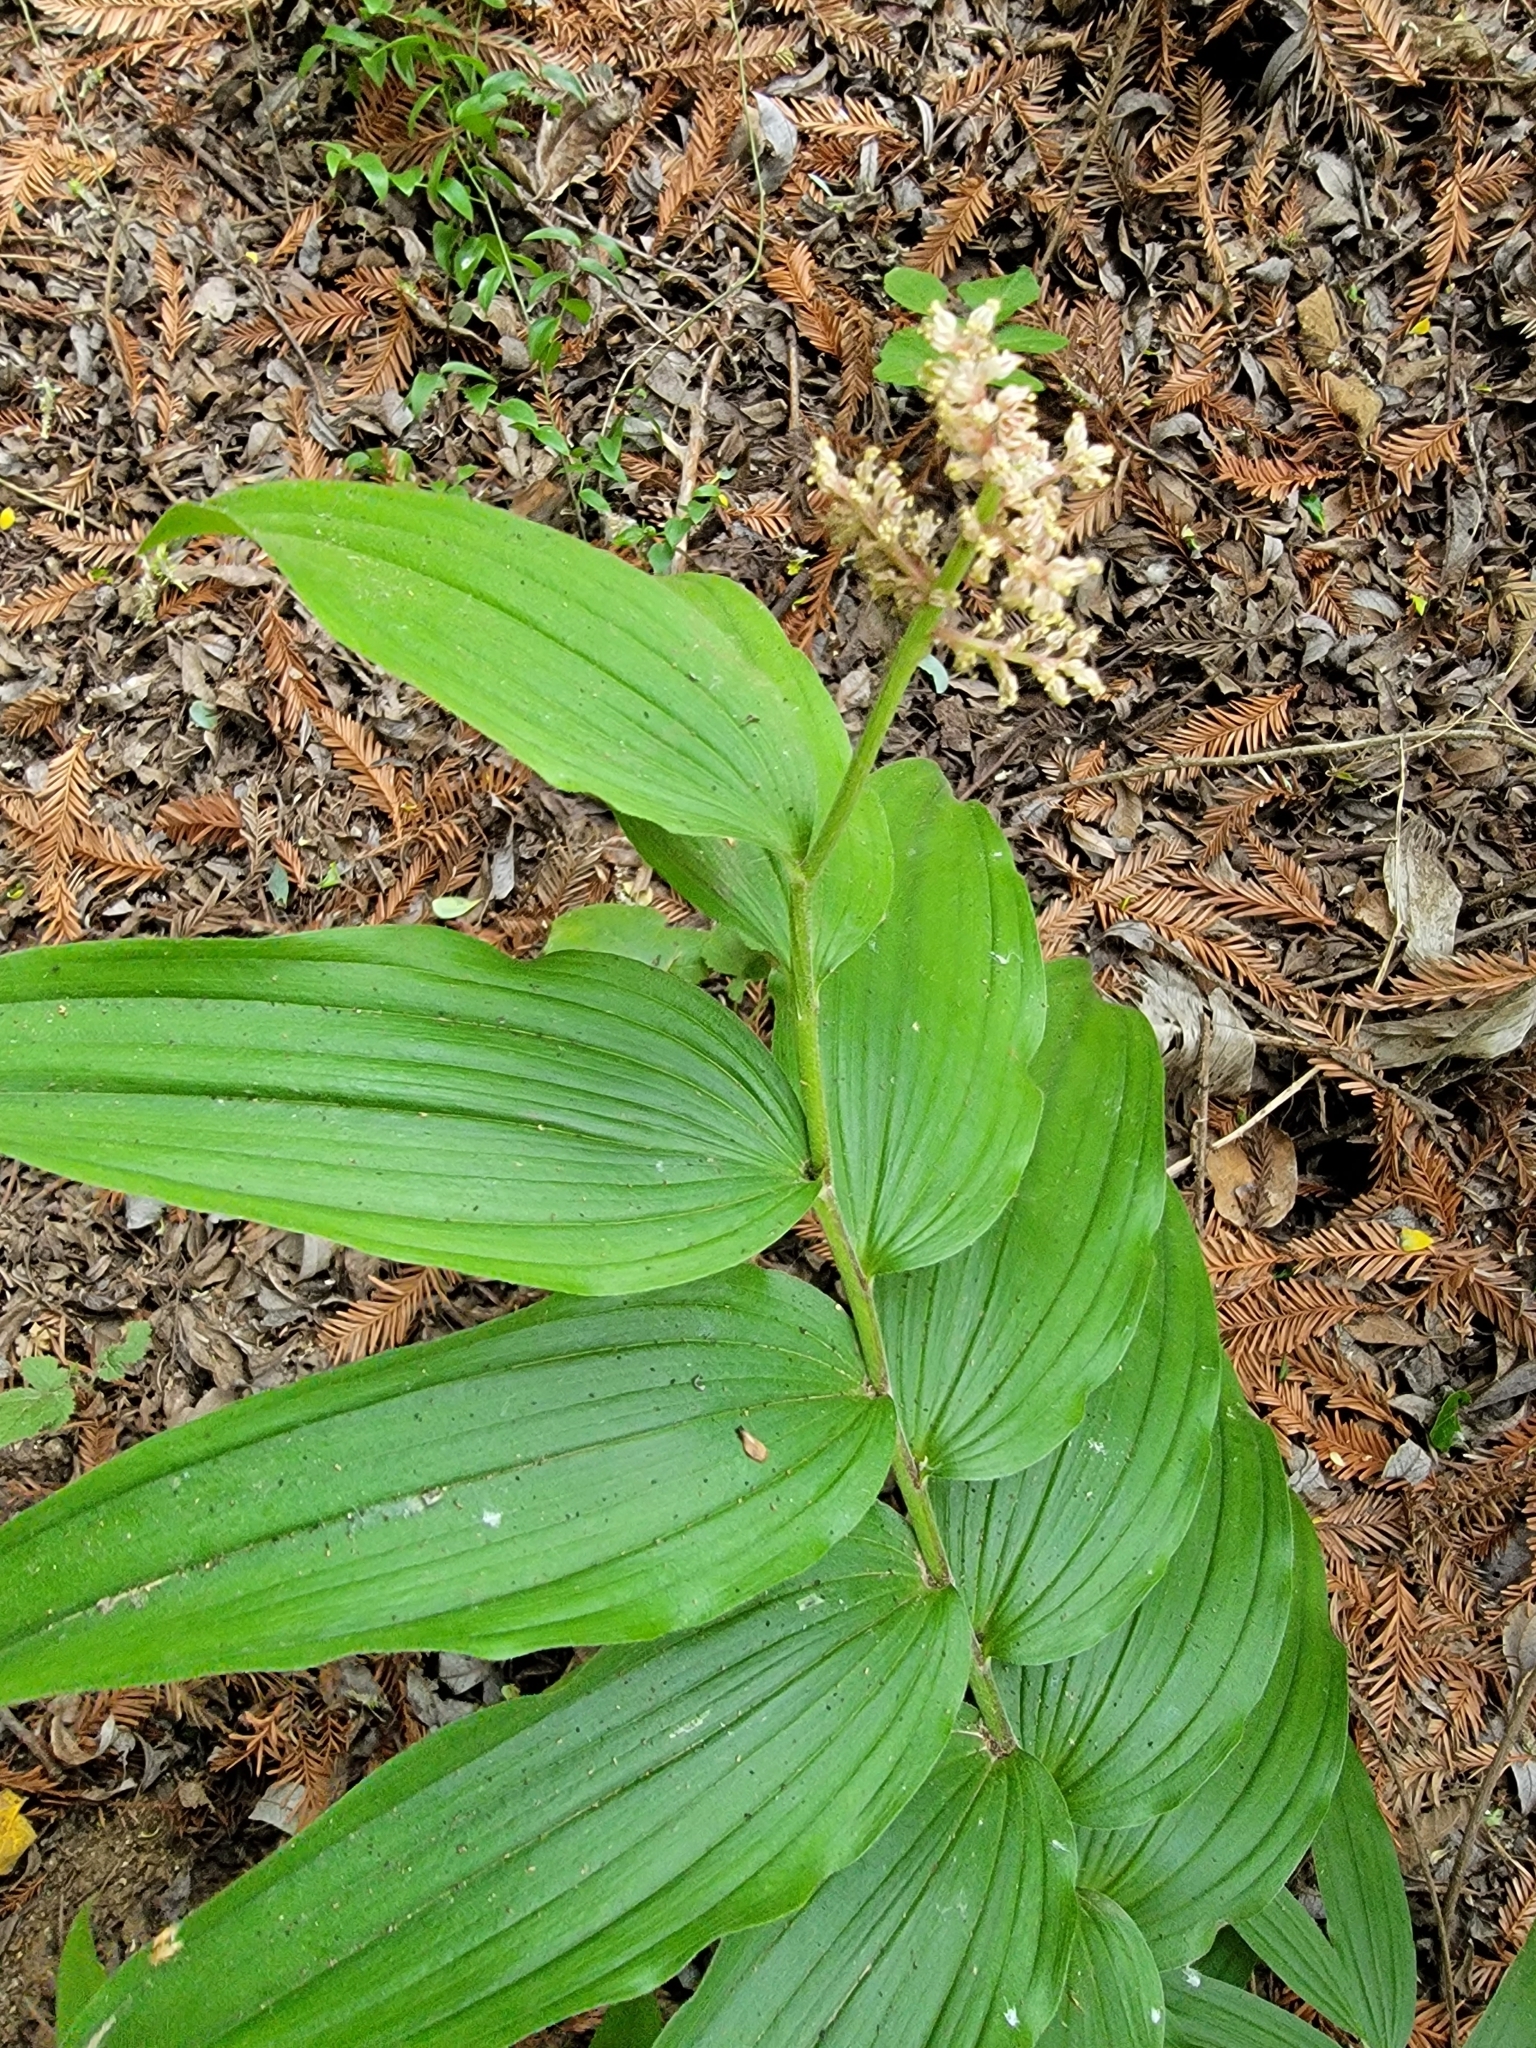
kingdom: Plantae
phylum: Tracheophyta
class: Liliopsida
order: Asparagales
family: Asparagaceae
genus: Maianthemum
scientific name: Maianthemum racemosum
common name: False spikenard
